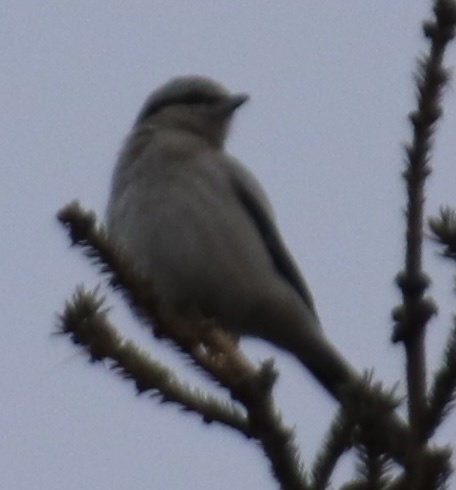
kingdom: Animalia
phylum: Chordata
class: Aves
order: Passeriformes
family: Laniidae
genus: Lanius
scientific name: Lanius borealis
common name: Northern shrike
